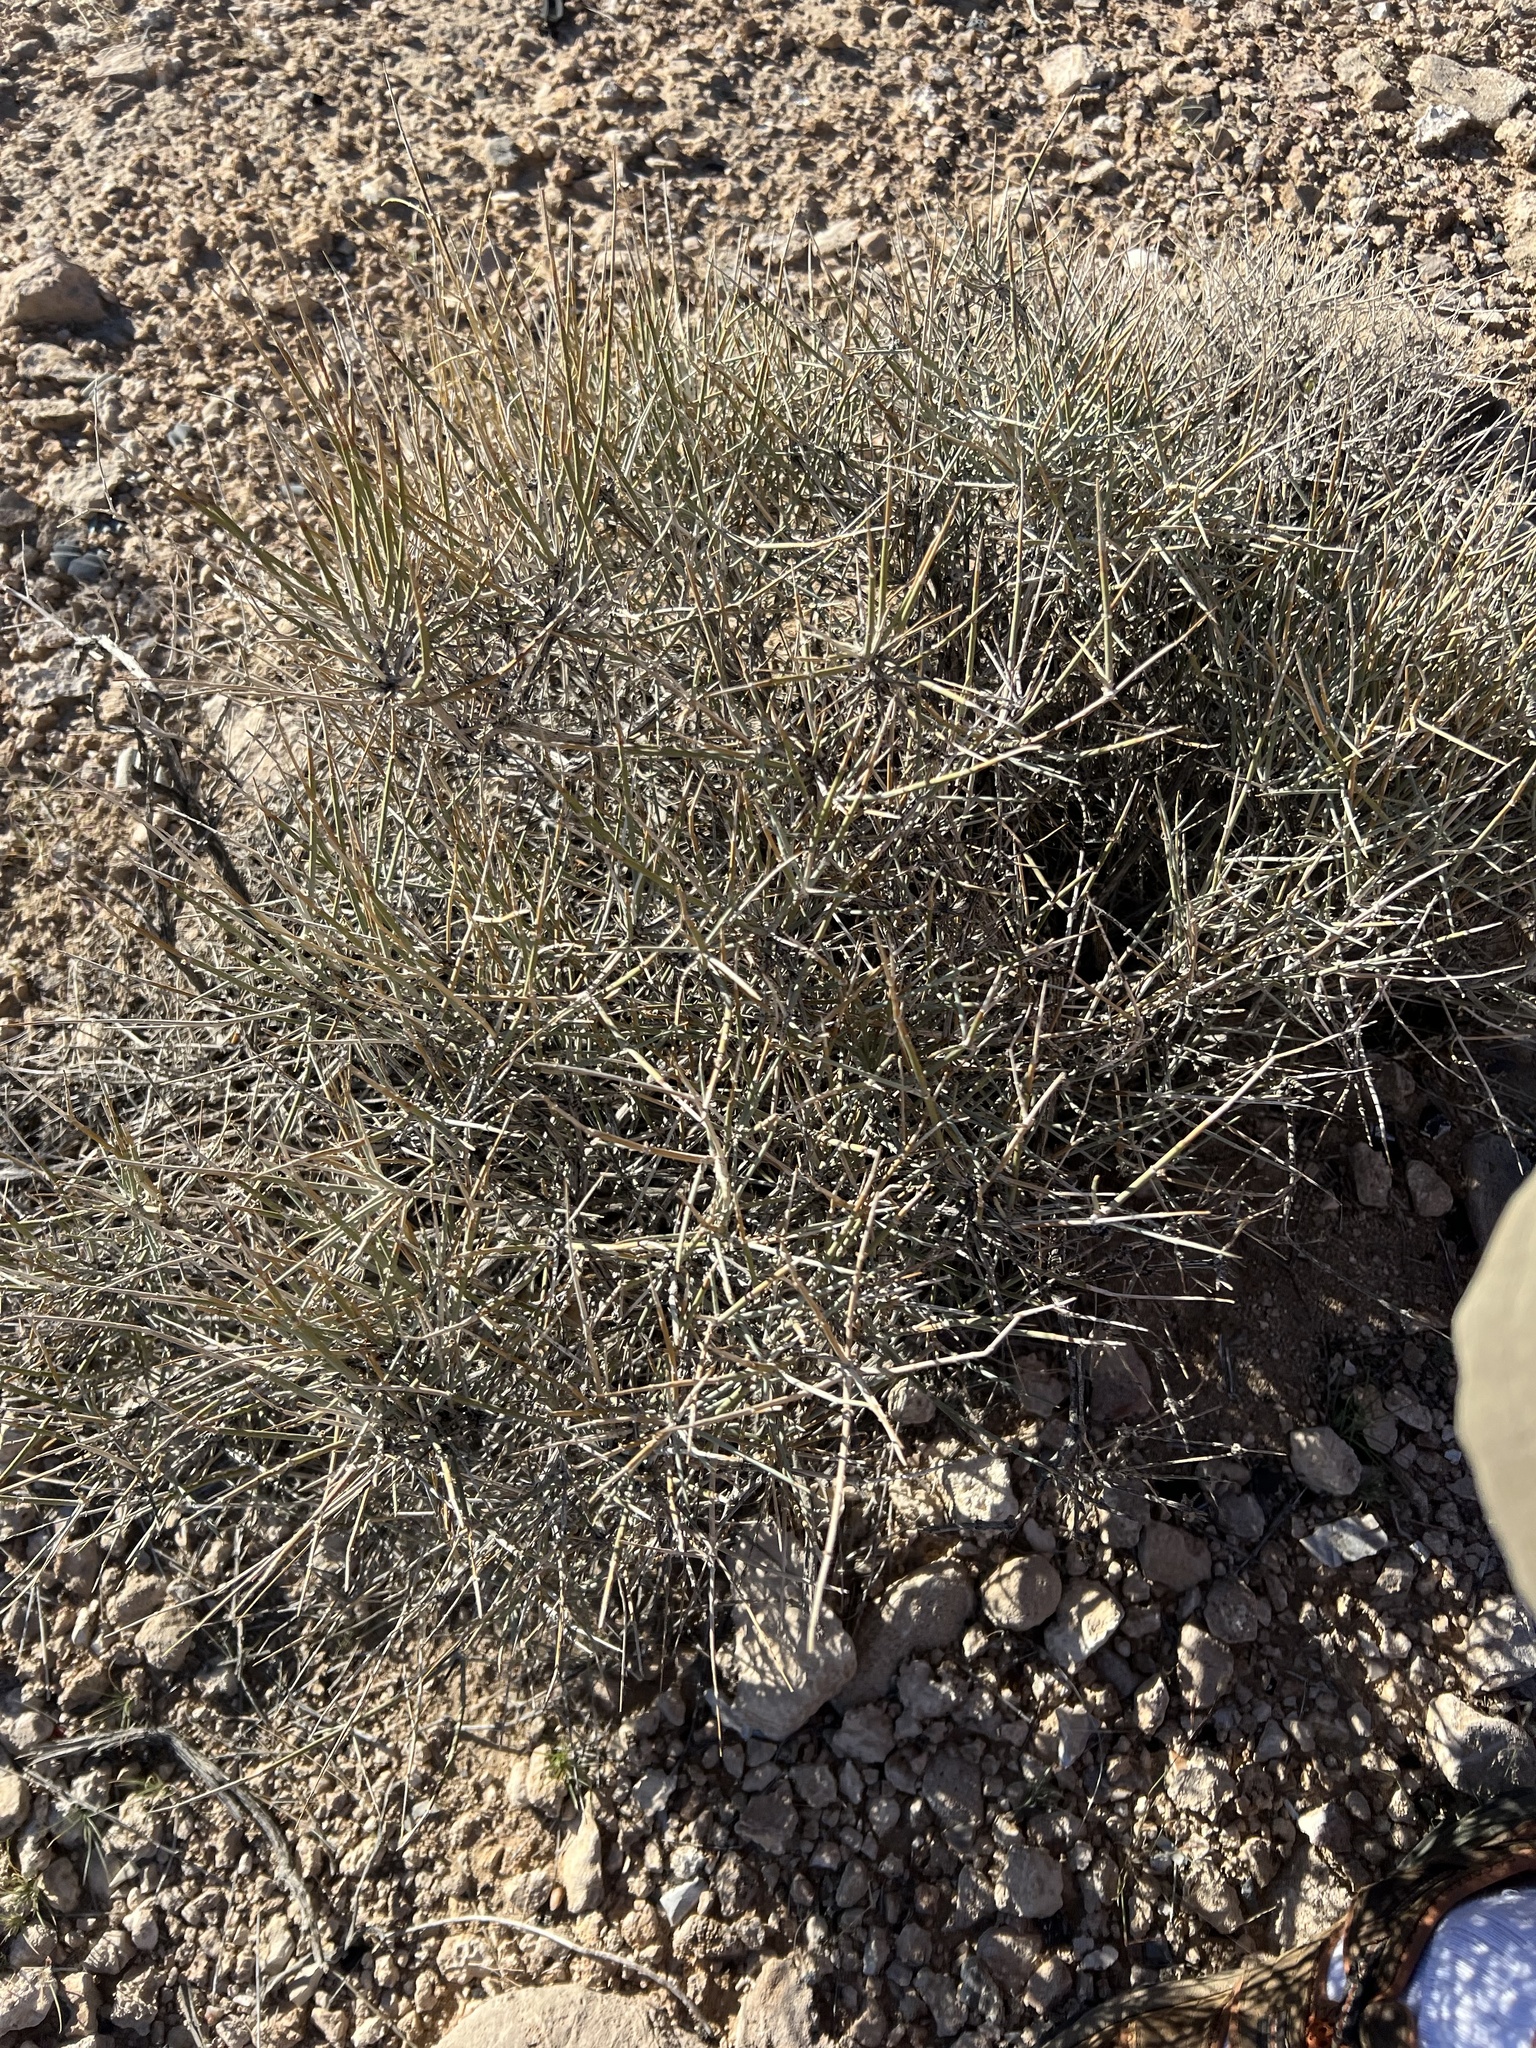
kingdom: Plantae
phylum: Tracheophyta
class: Gnetopsida
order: Ephedrales
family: Ephedraceae
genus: Ephedra
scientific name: Ephedra nevadensis
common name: Gray ephedra
